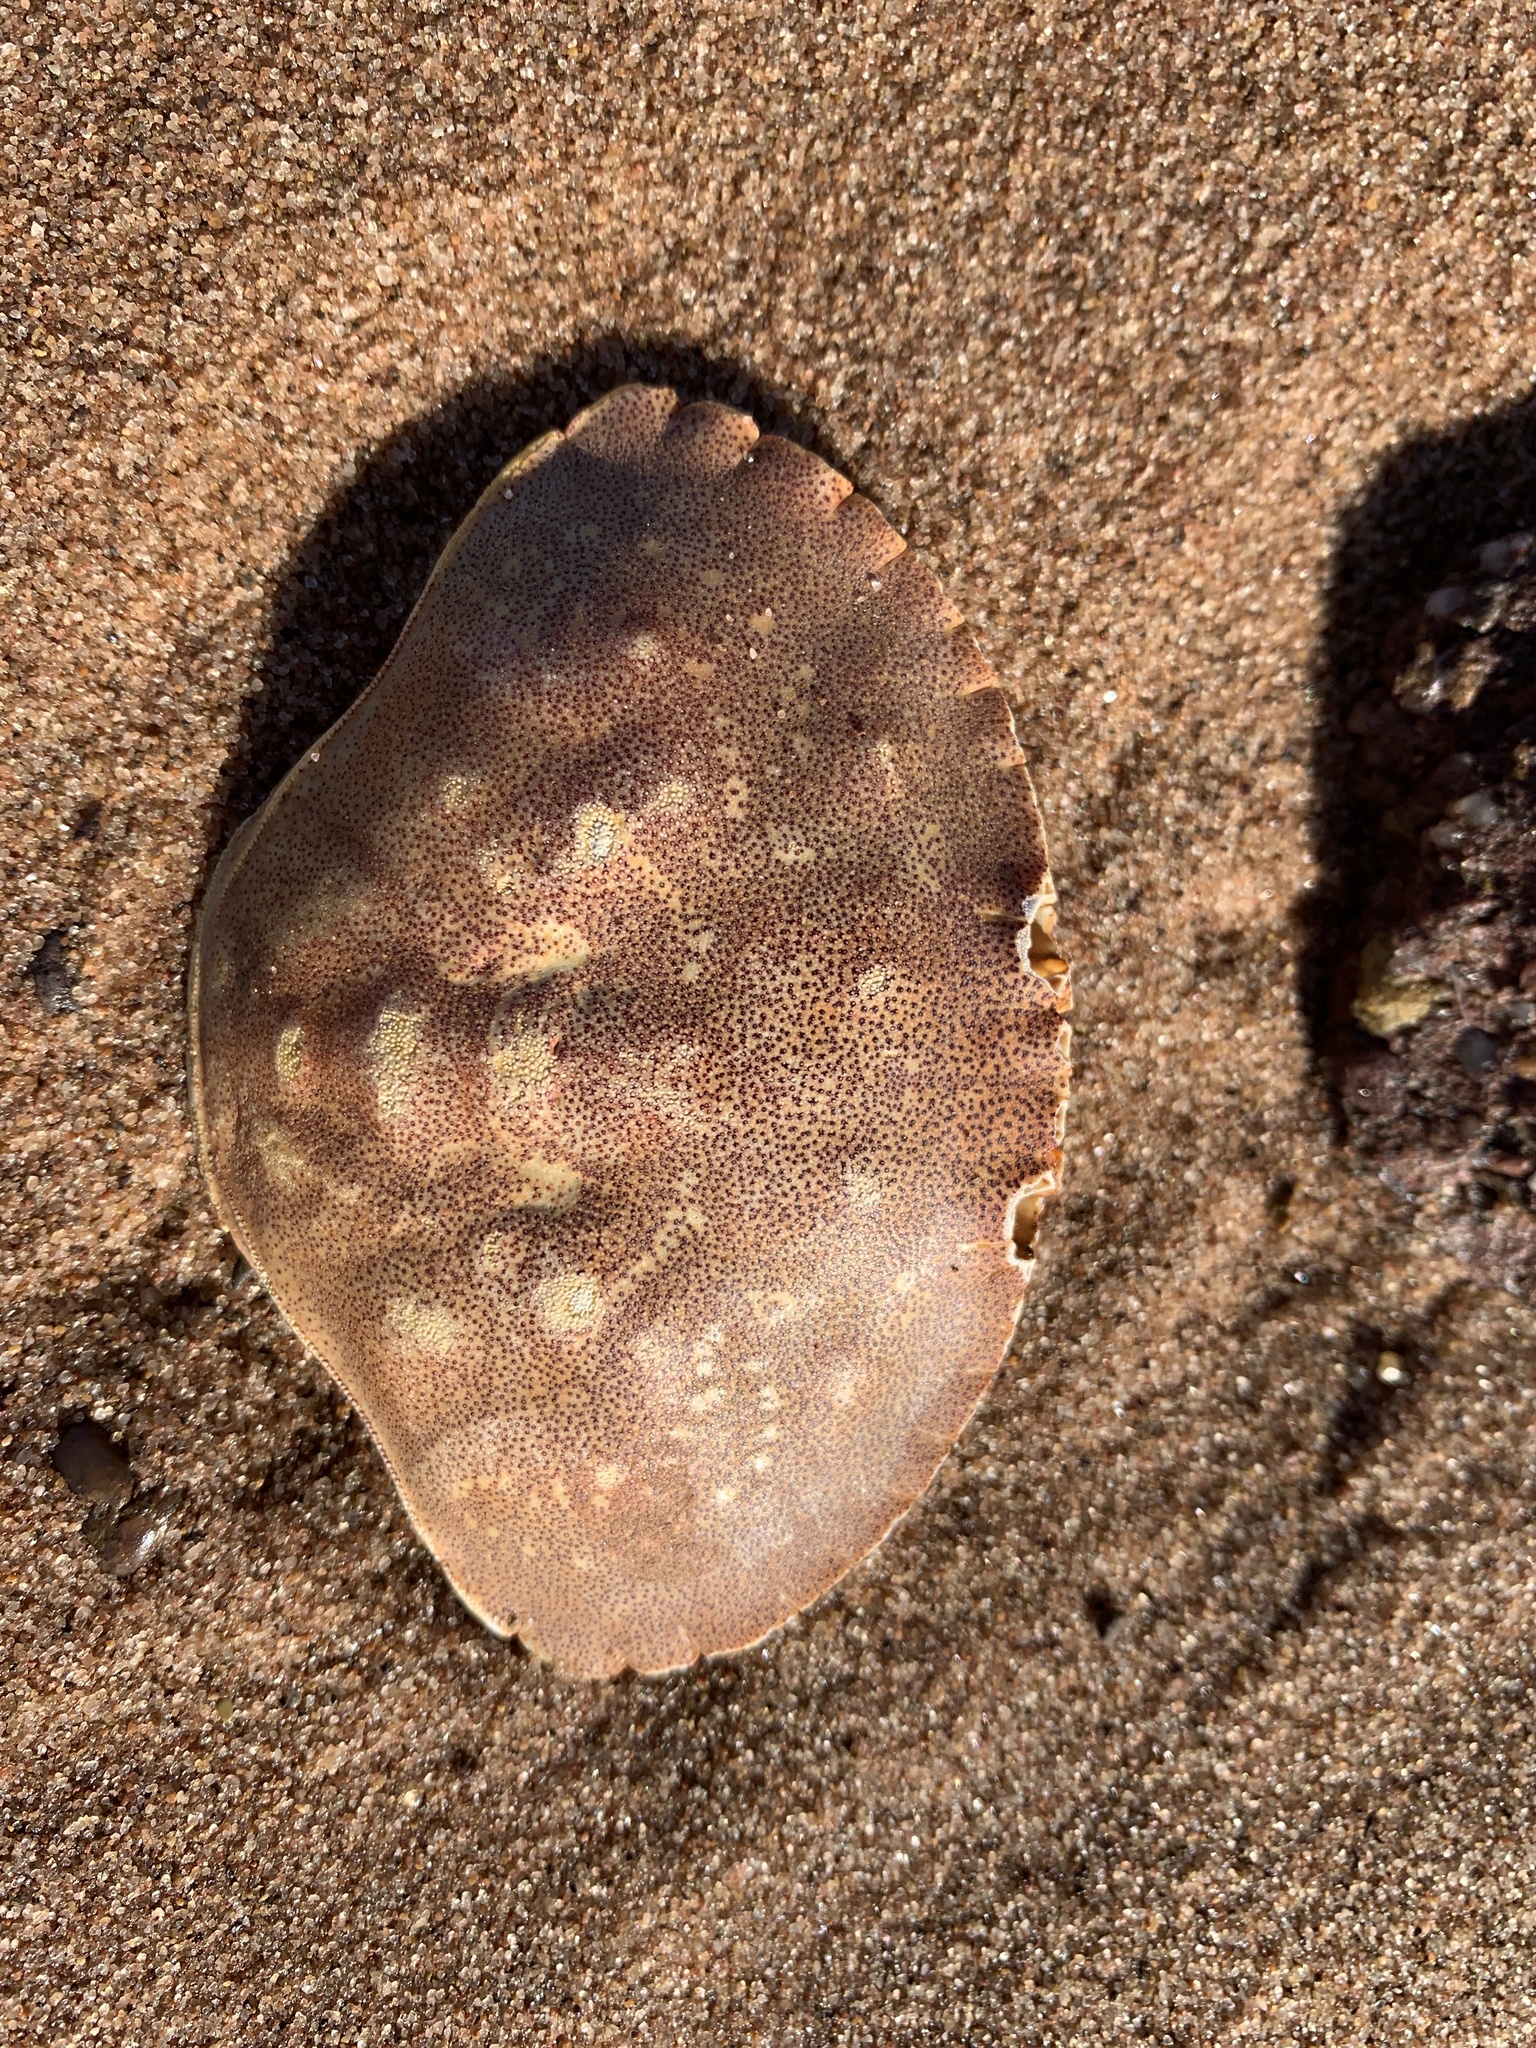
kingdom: Animalia
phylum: Arthropoda
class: Malacostraca
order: Decapoda
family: Cancridae
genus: Cancer
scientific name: Cancer irroratus
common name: Atlantic rock crab
